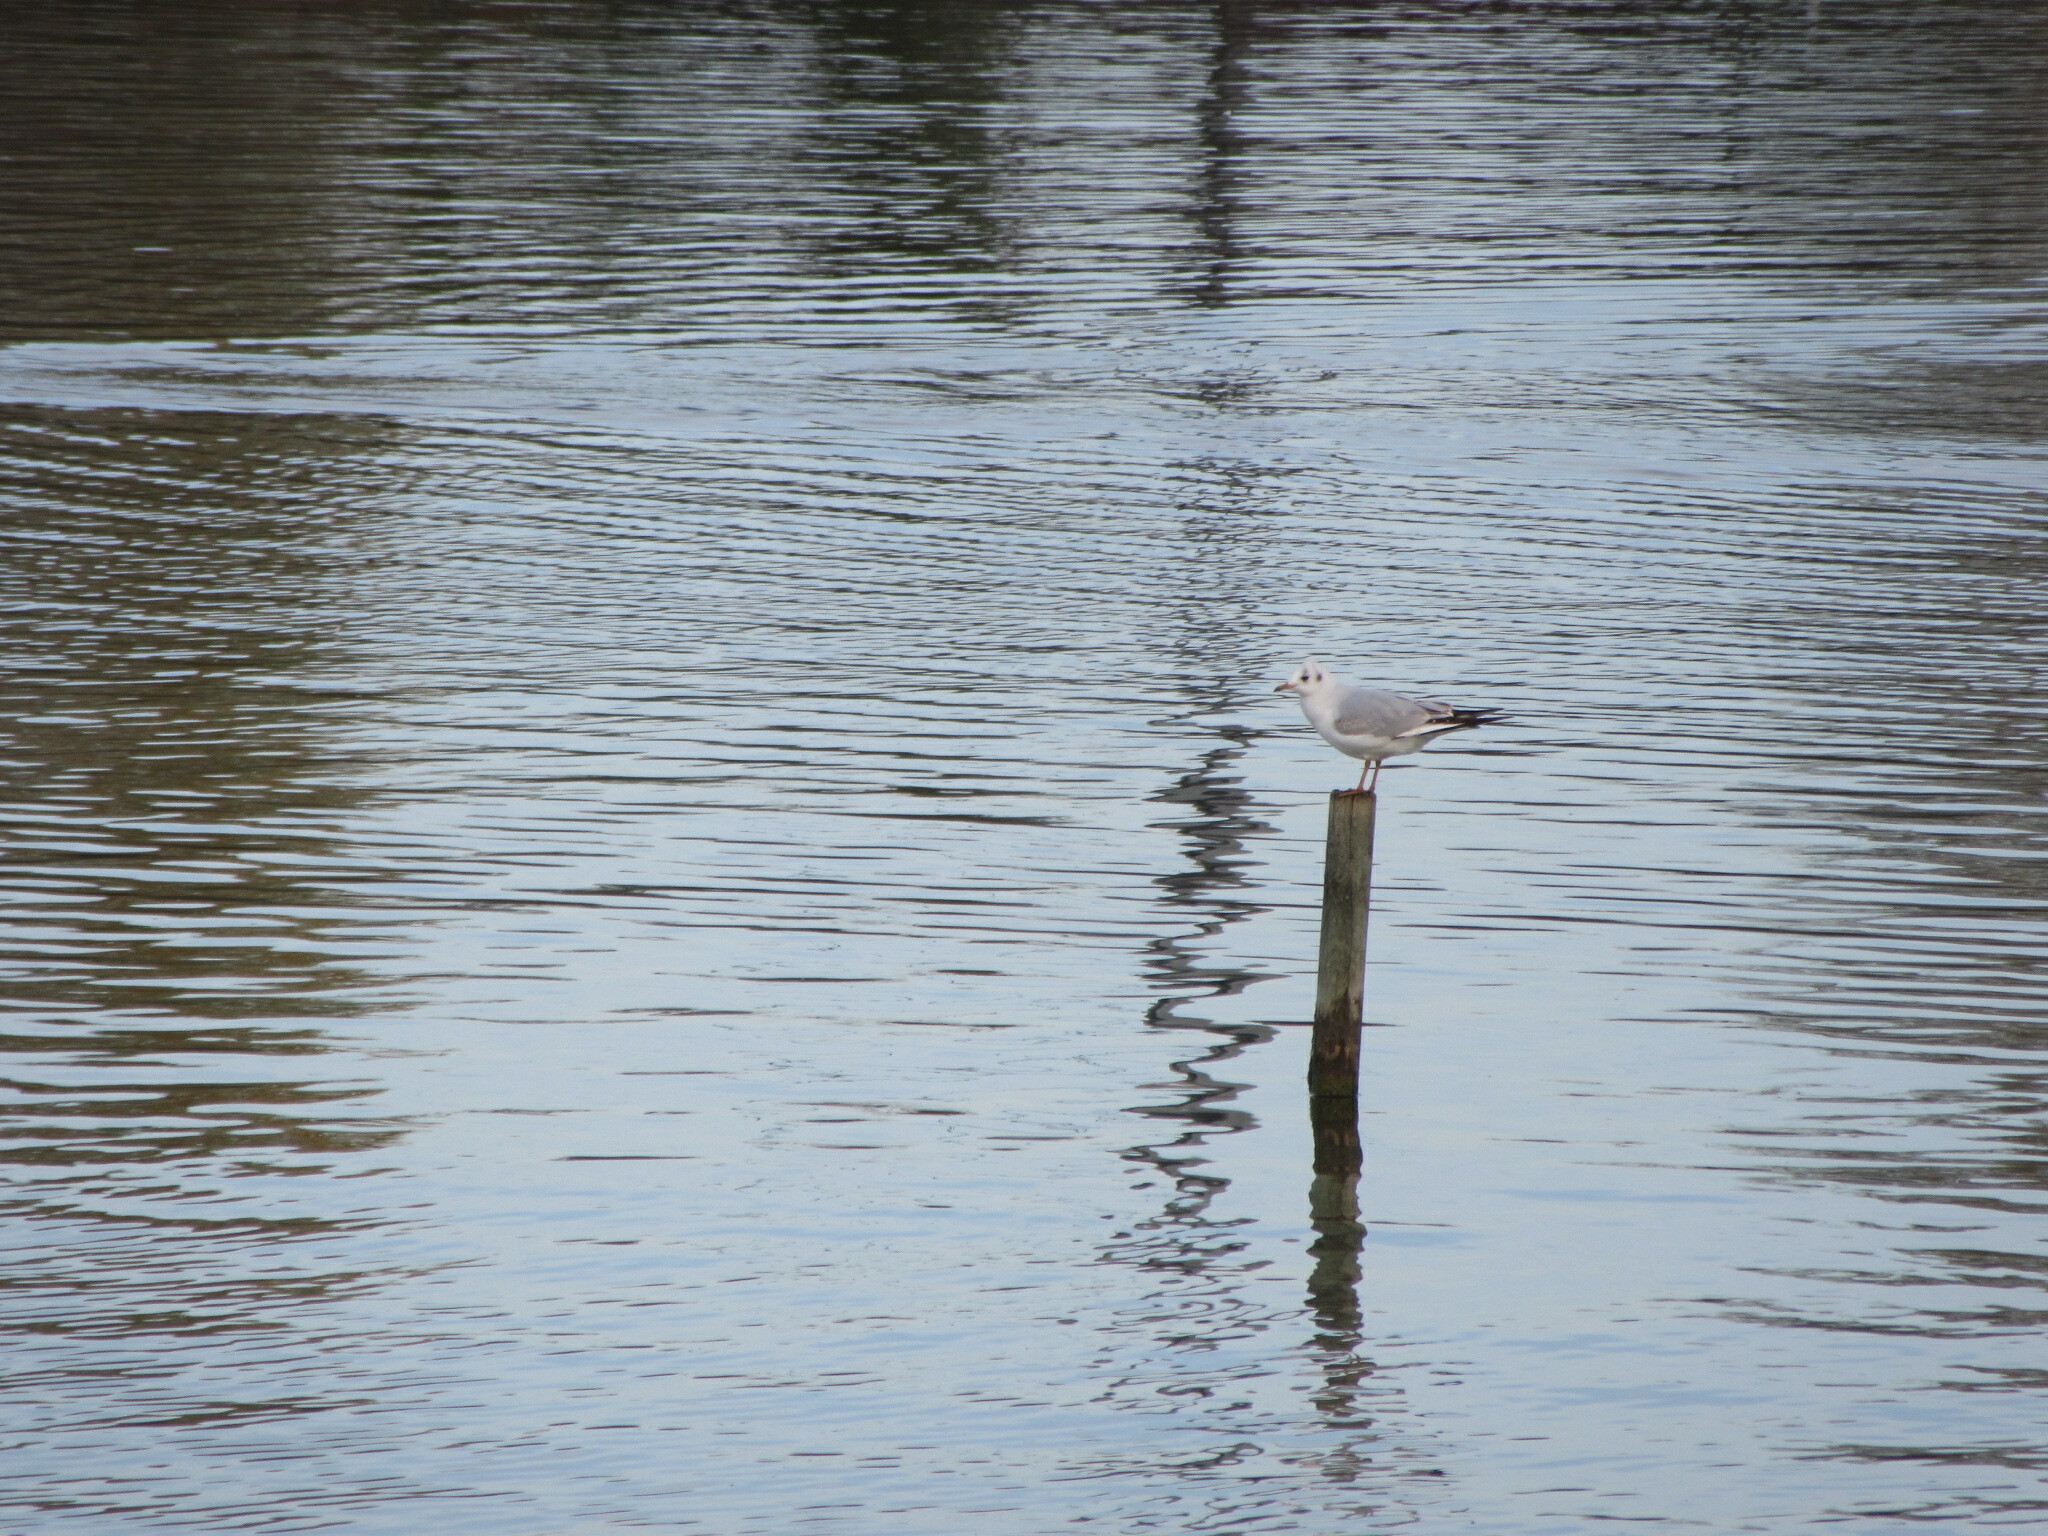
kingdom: Animalia
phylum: Chordata
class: Aves
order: Charadriiformes
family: Laridae
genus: Chroicocephalus
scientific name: Chroicocephalus ridibundus
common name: Black-headed gull
